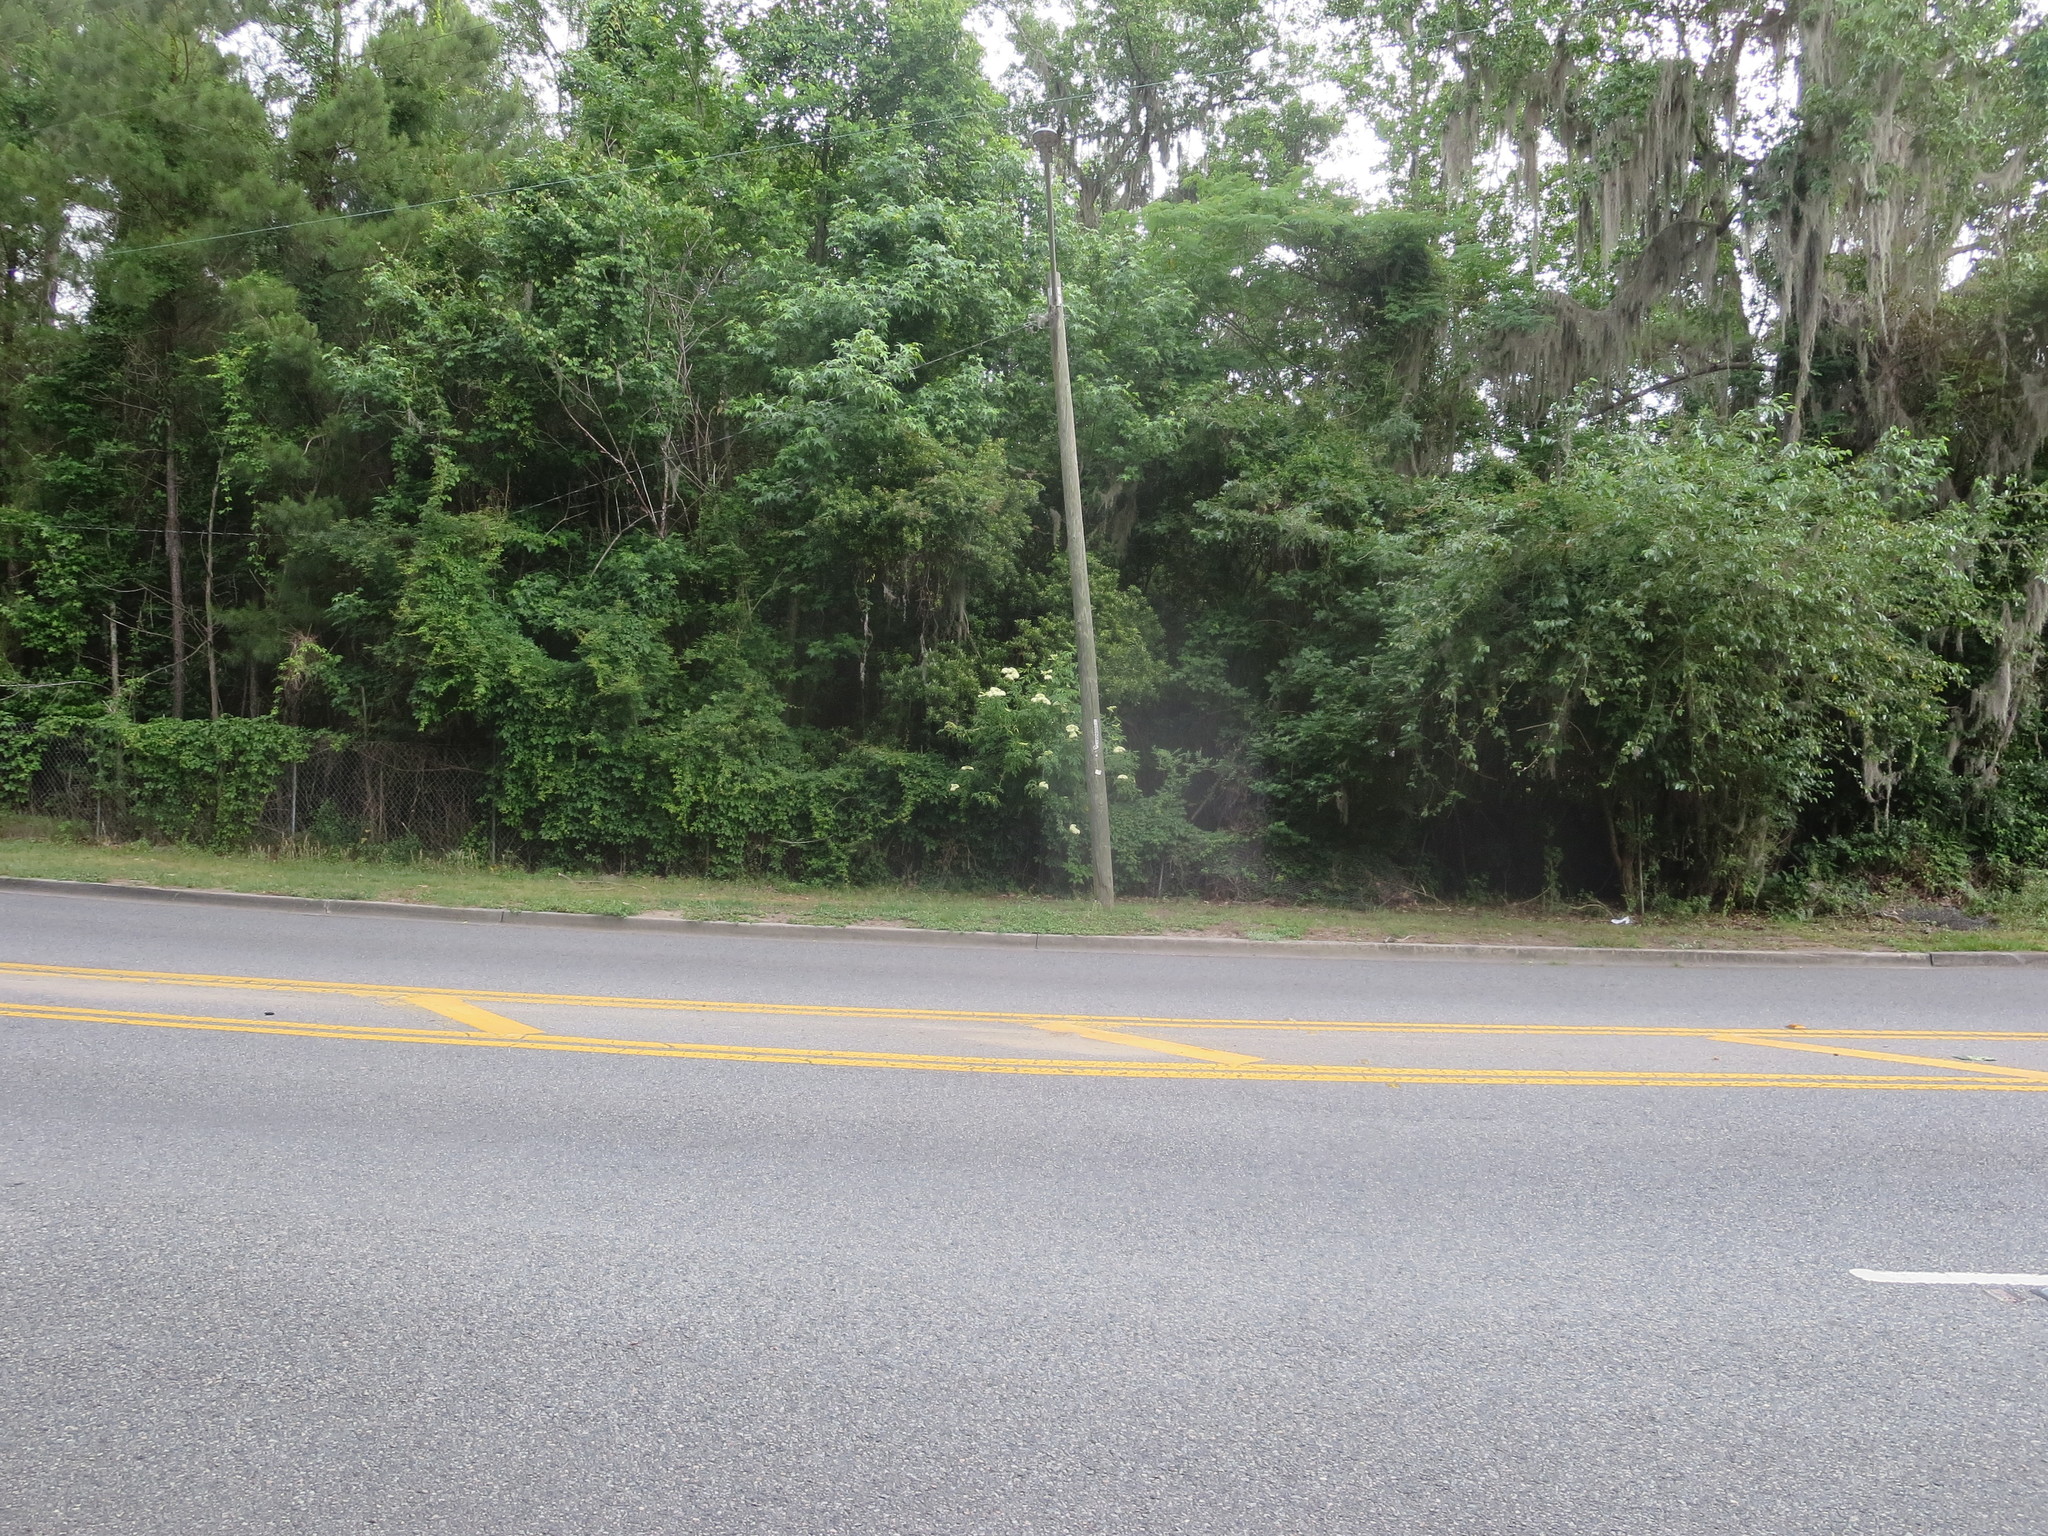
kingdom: Plantae
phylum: Tracheophyta
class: Magnoliopsida
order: Dipsacales
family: Viburnaceae
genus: Sambucus
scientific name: Sambucus canadensis
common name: American elder
